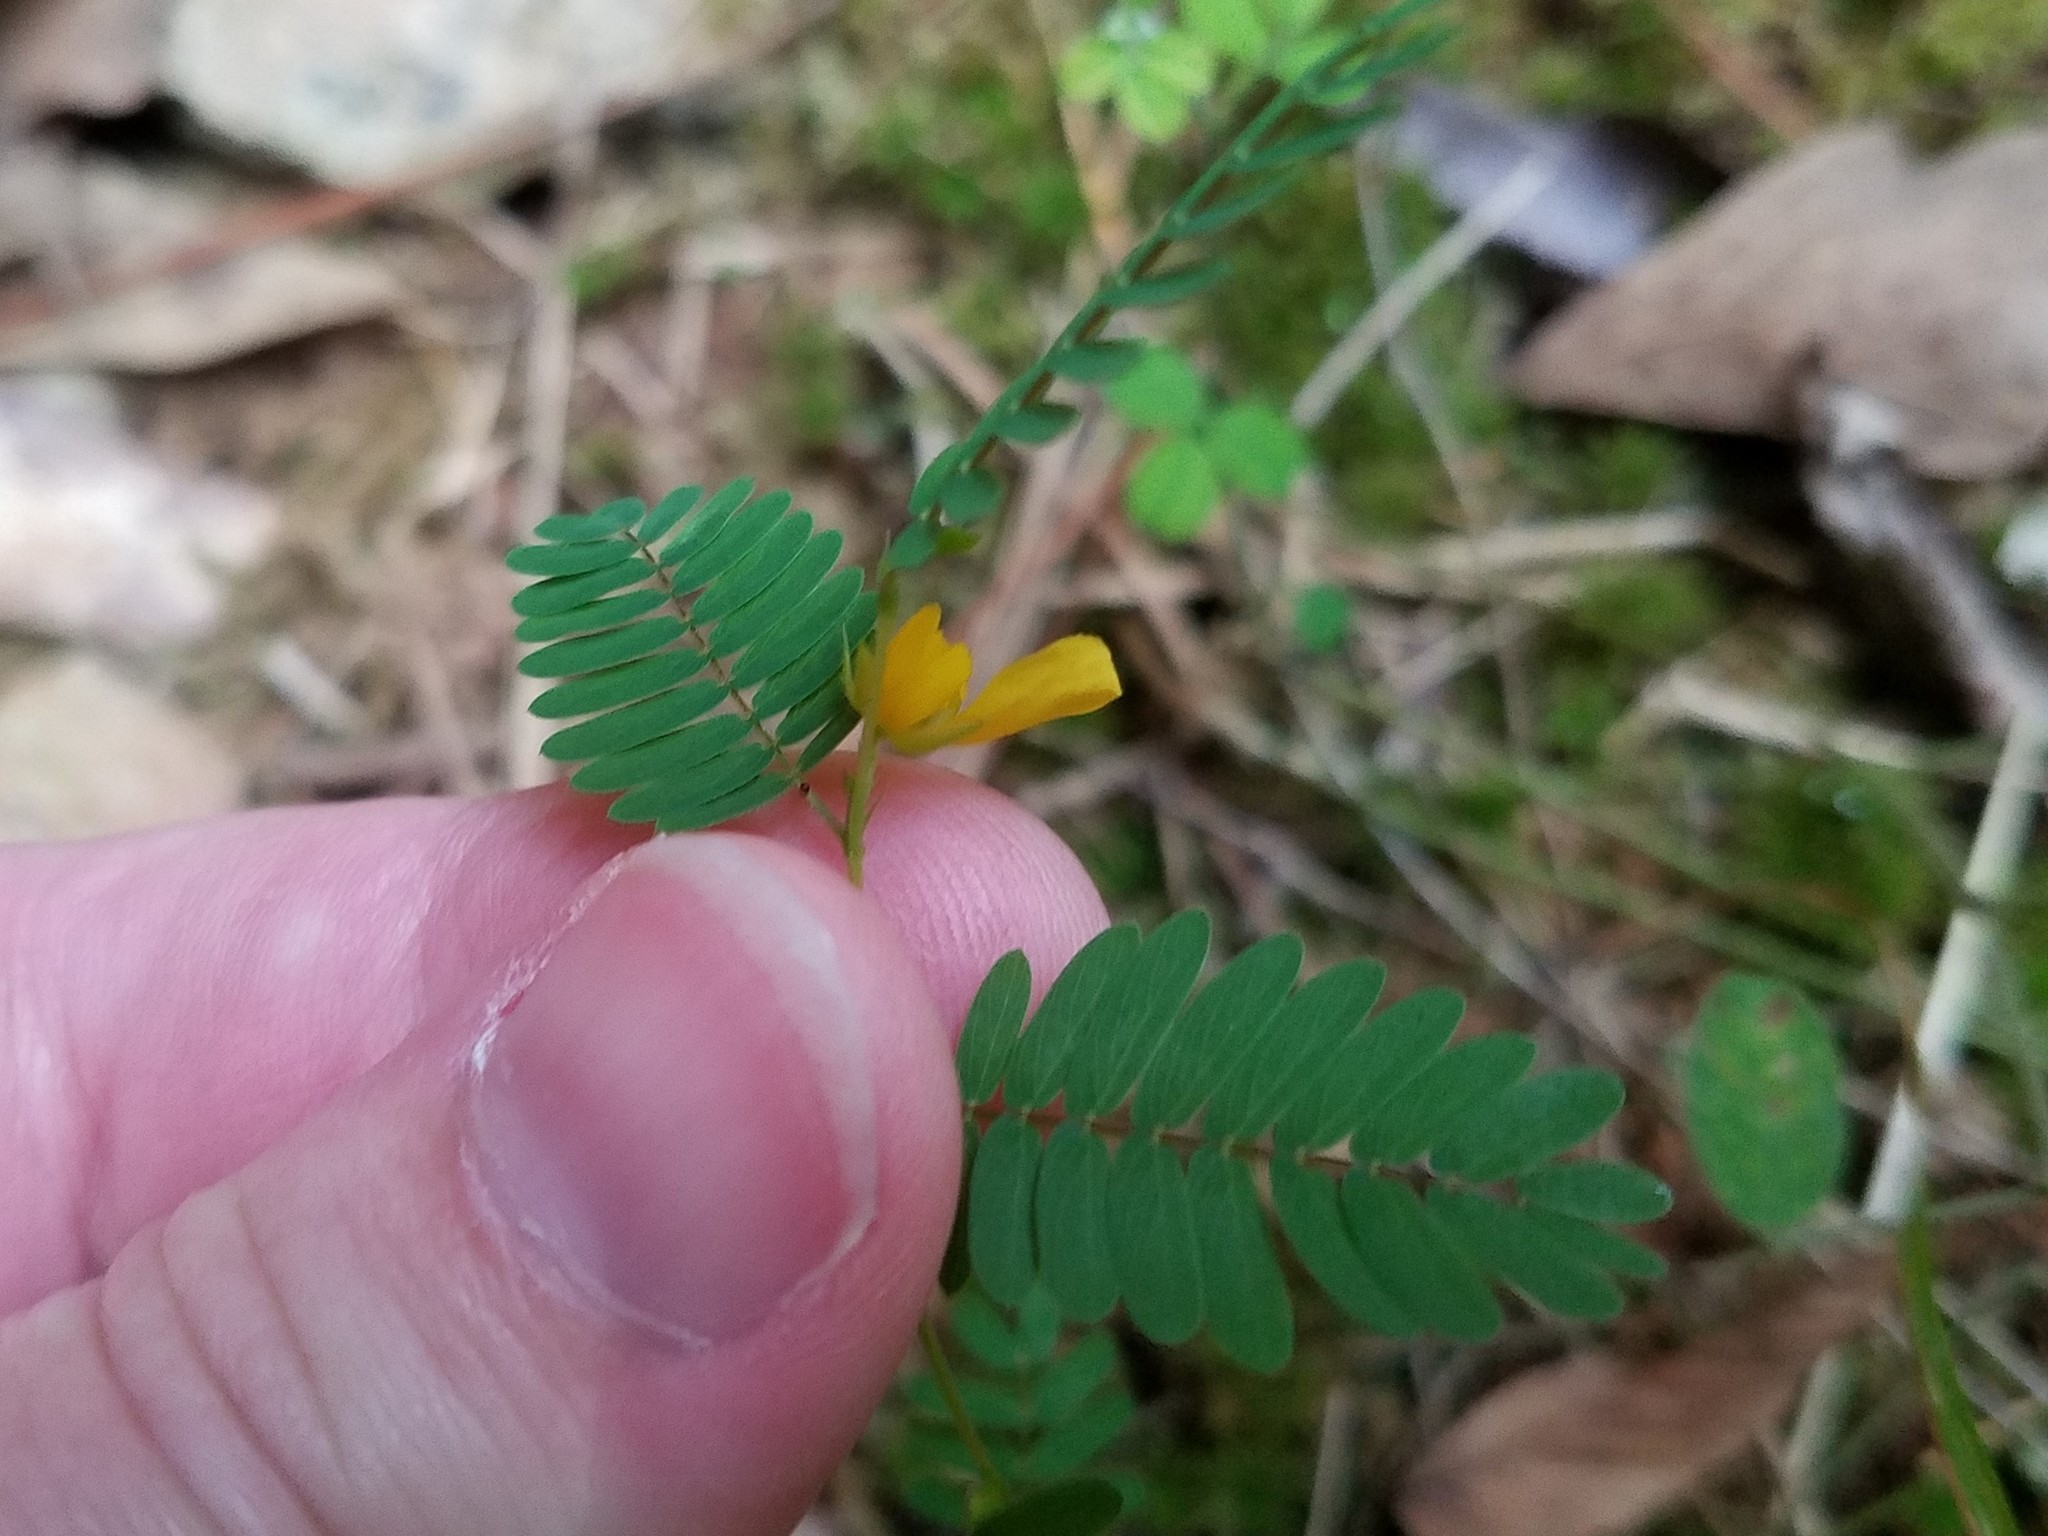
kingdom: Plantae
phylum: Tracheophyta
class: Magnoliopsida
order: Fabales
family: Fabaceae
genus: Chamaecrista
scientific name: Chamaecrista nictitans
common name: Sensitive cassia
